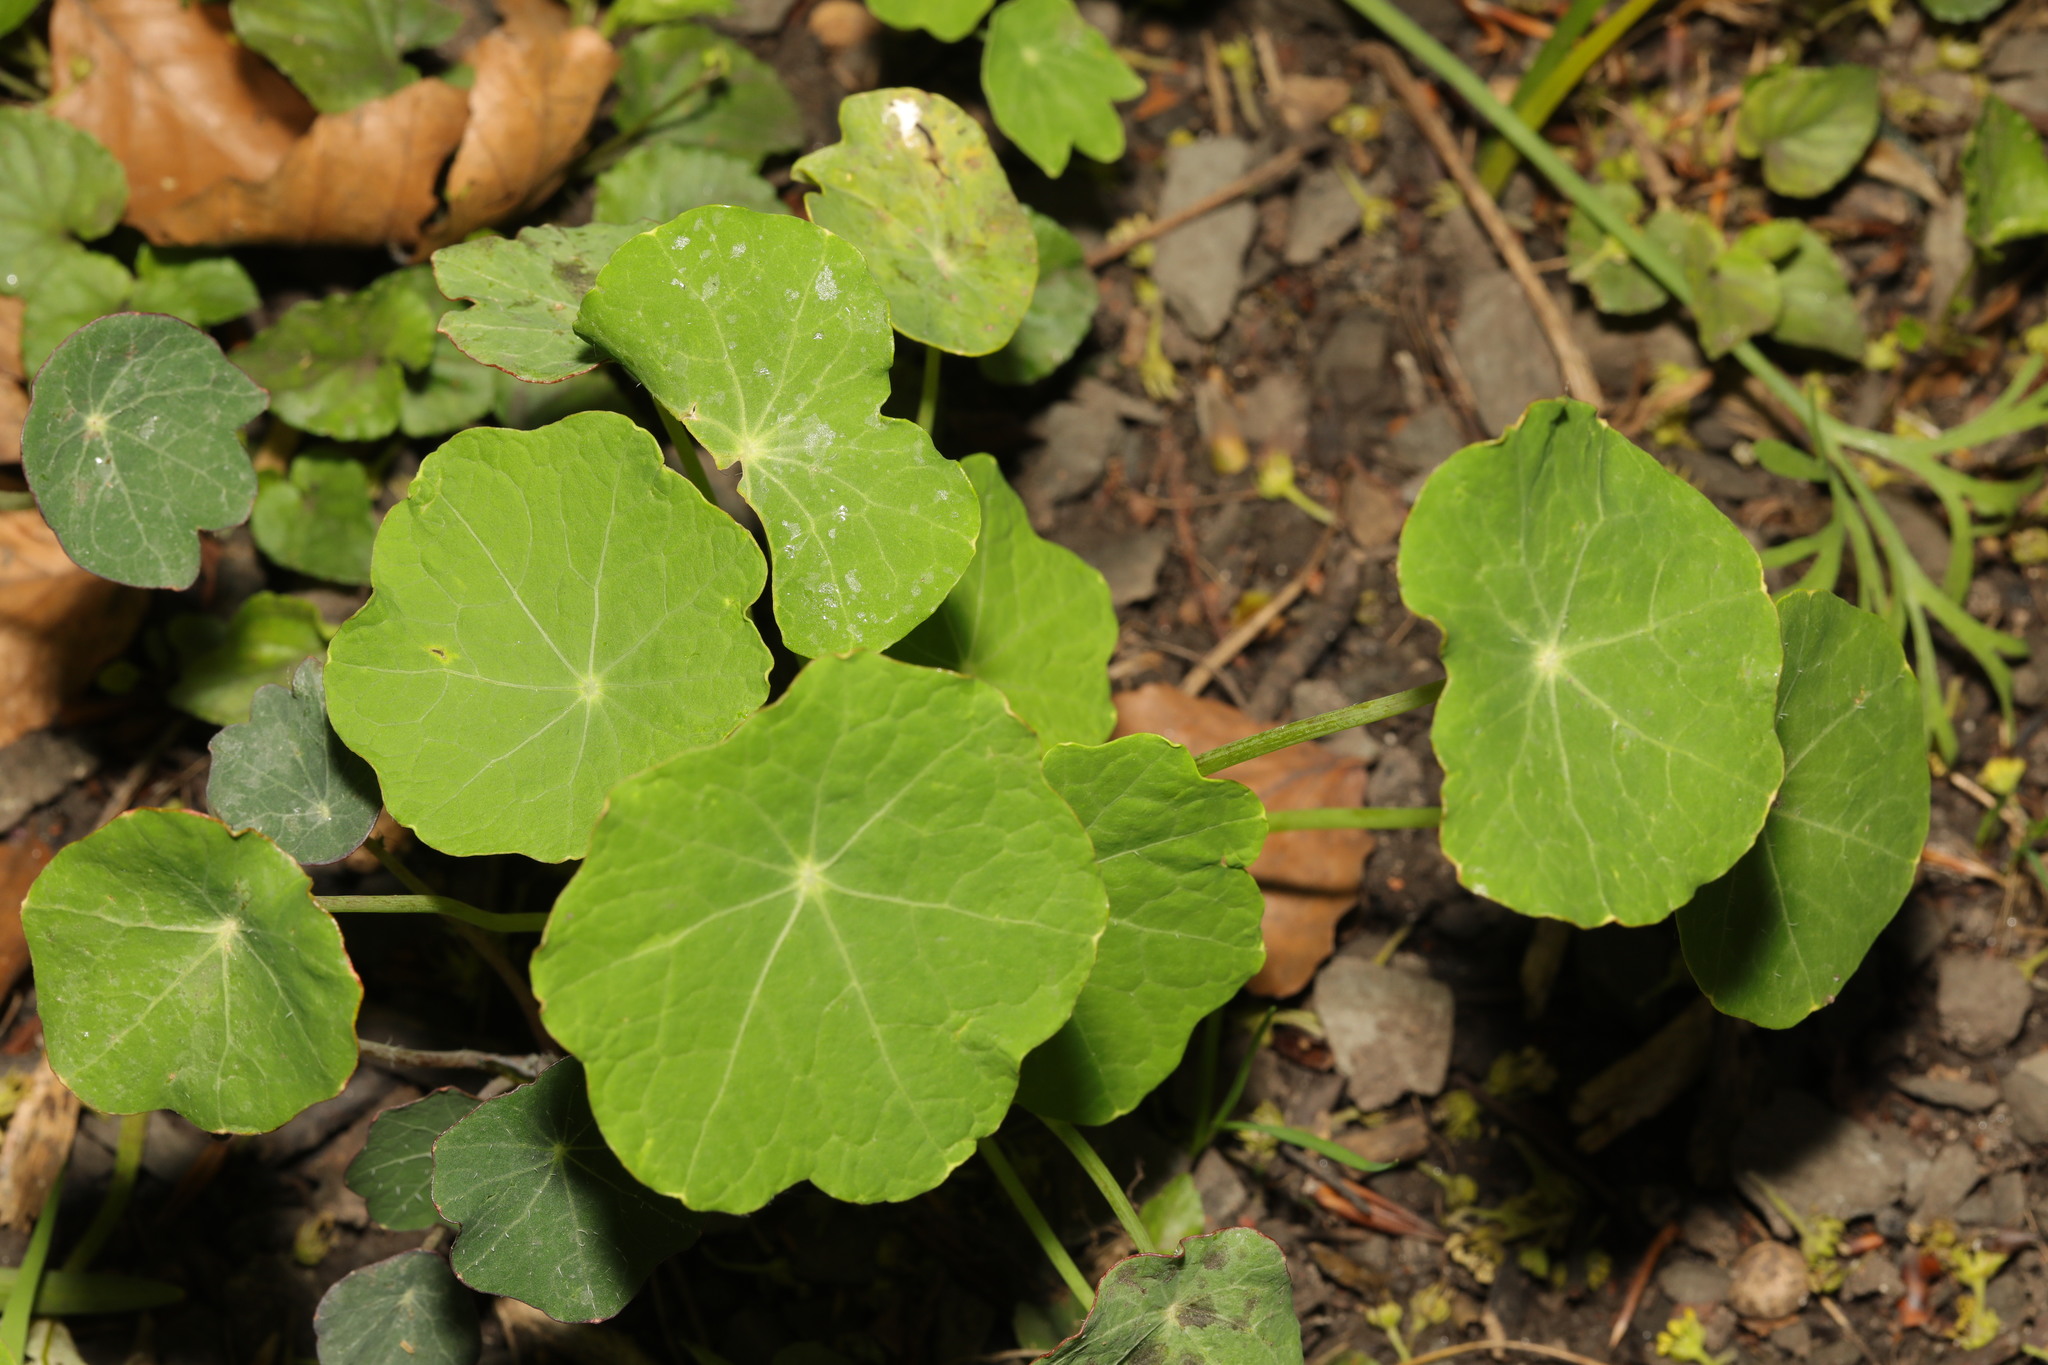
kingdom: Plantae
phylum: Tracheophyta
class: Magnoliopsida
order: Brassicales
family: Tropaeolaceae
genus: Tropaeolum
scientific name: Tropaeolum majus
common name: Nasturtium
